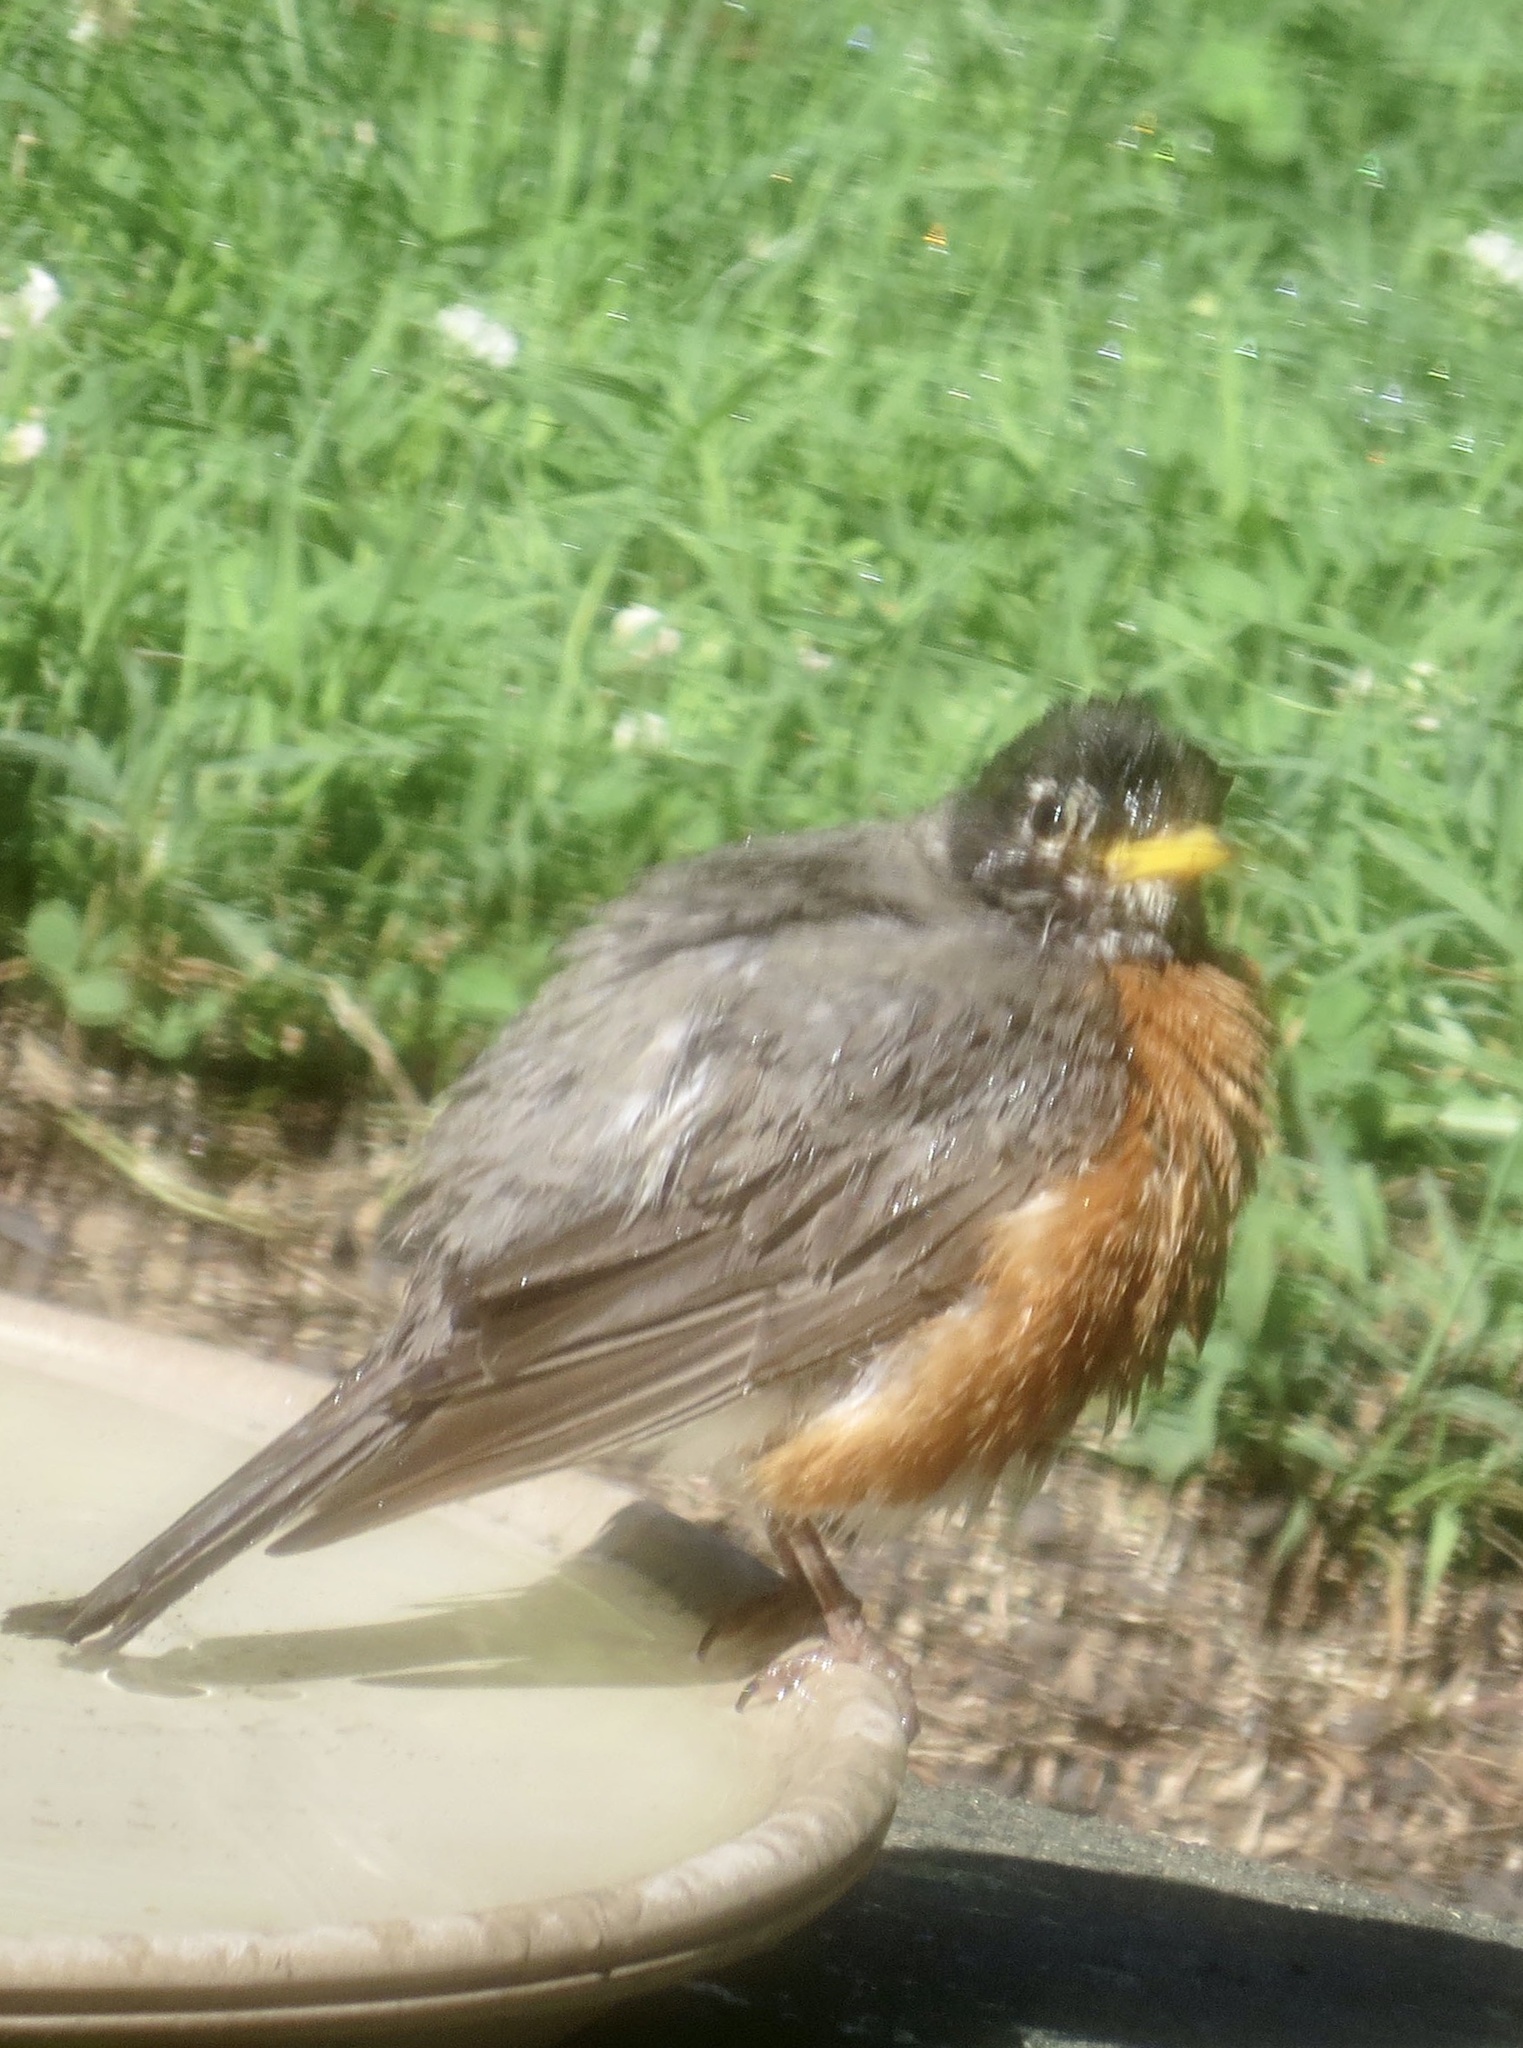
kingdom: Animalia
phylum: Chordata
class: Aves
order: Passeriformes
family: Turdidae
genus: Turdus
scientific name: Turdus migratorius
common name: American robin
